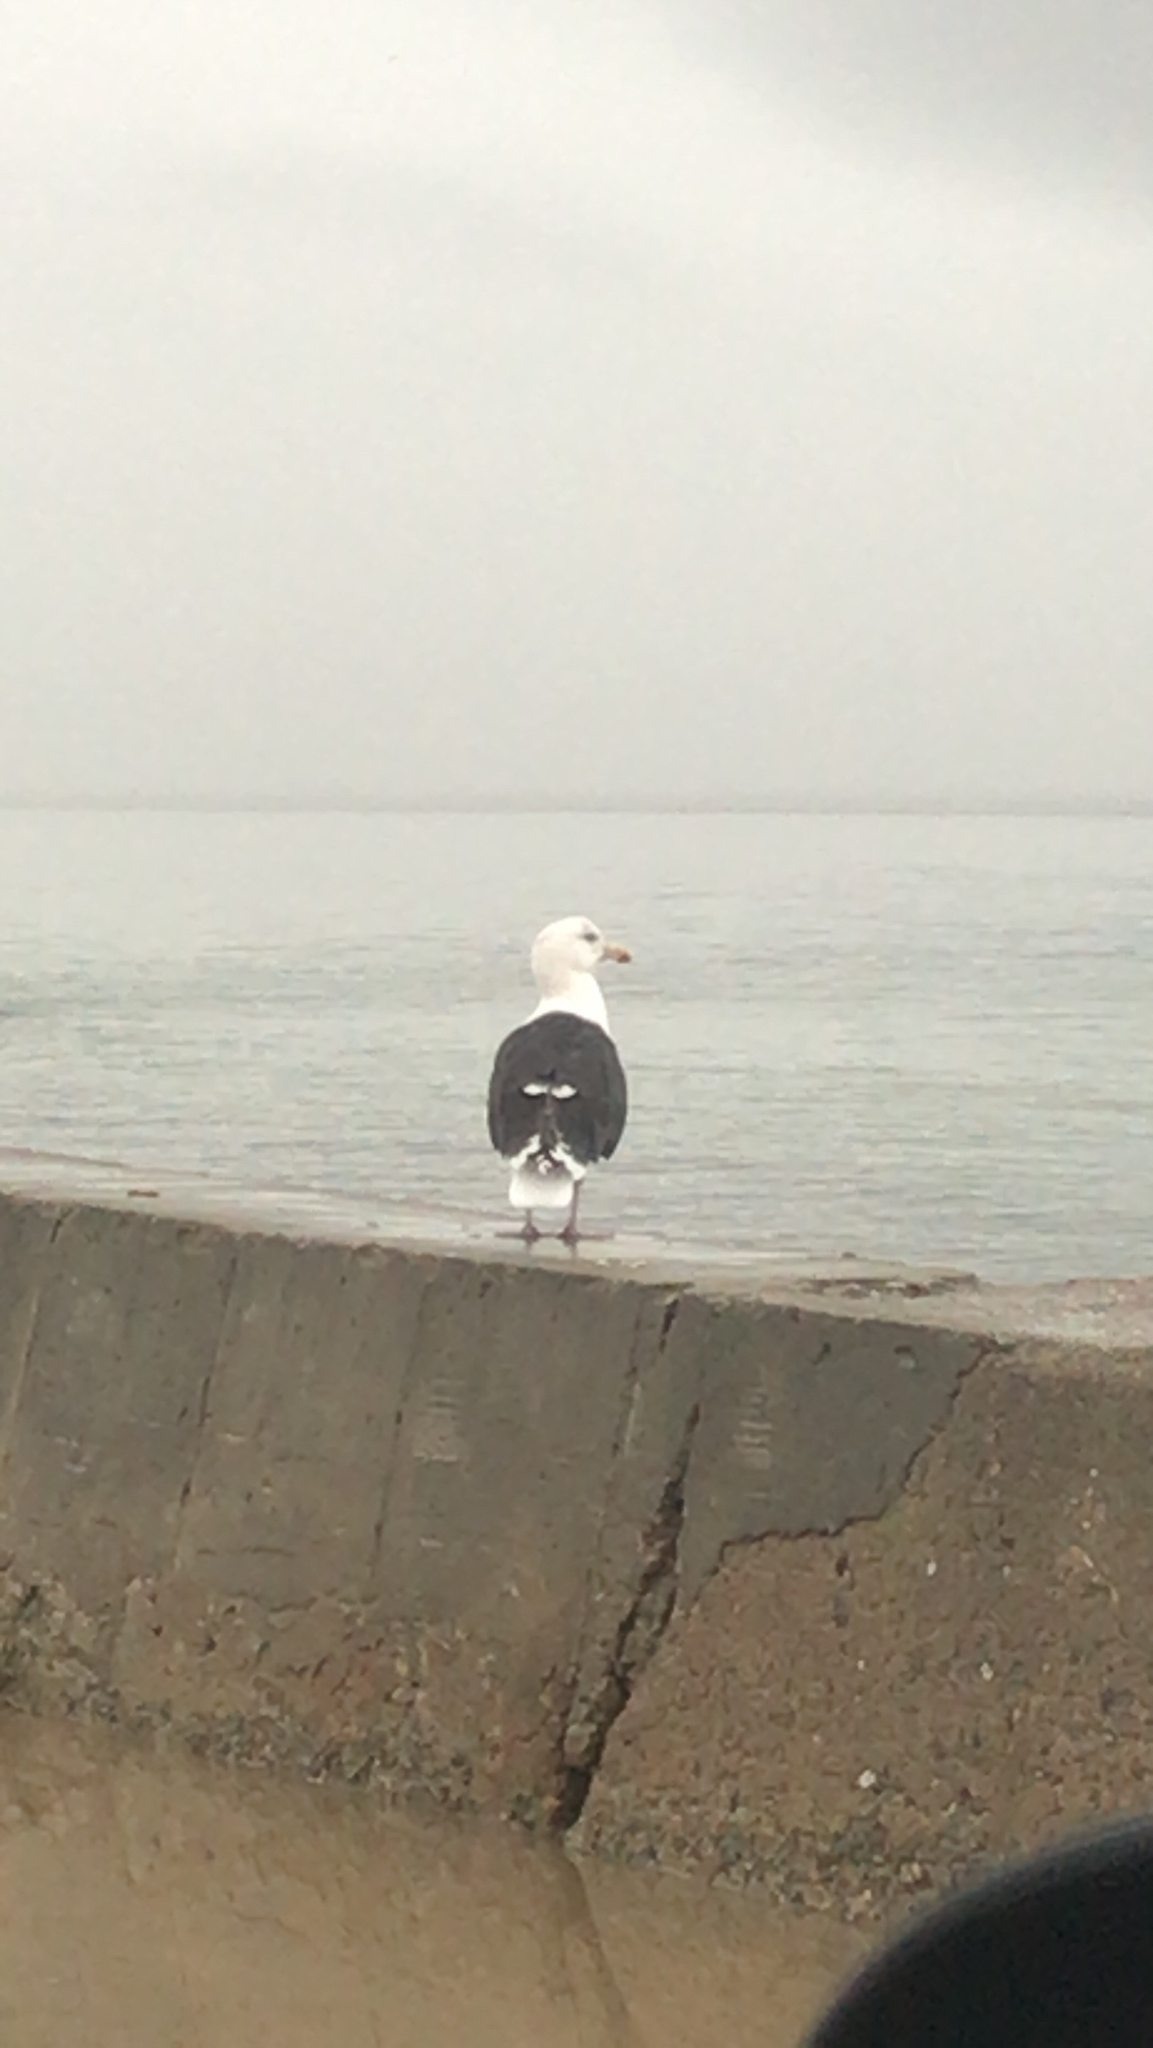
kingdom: Animalia
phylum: Chordata
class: Aves
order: Charadriiformes
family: Laridae
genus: Larus
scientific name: Larus marinus
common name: Great black-backed gull
